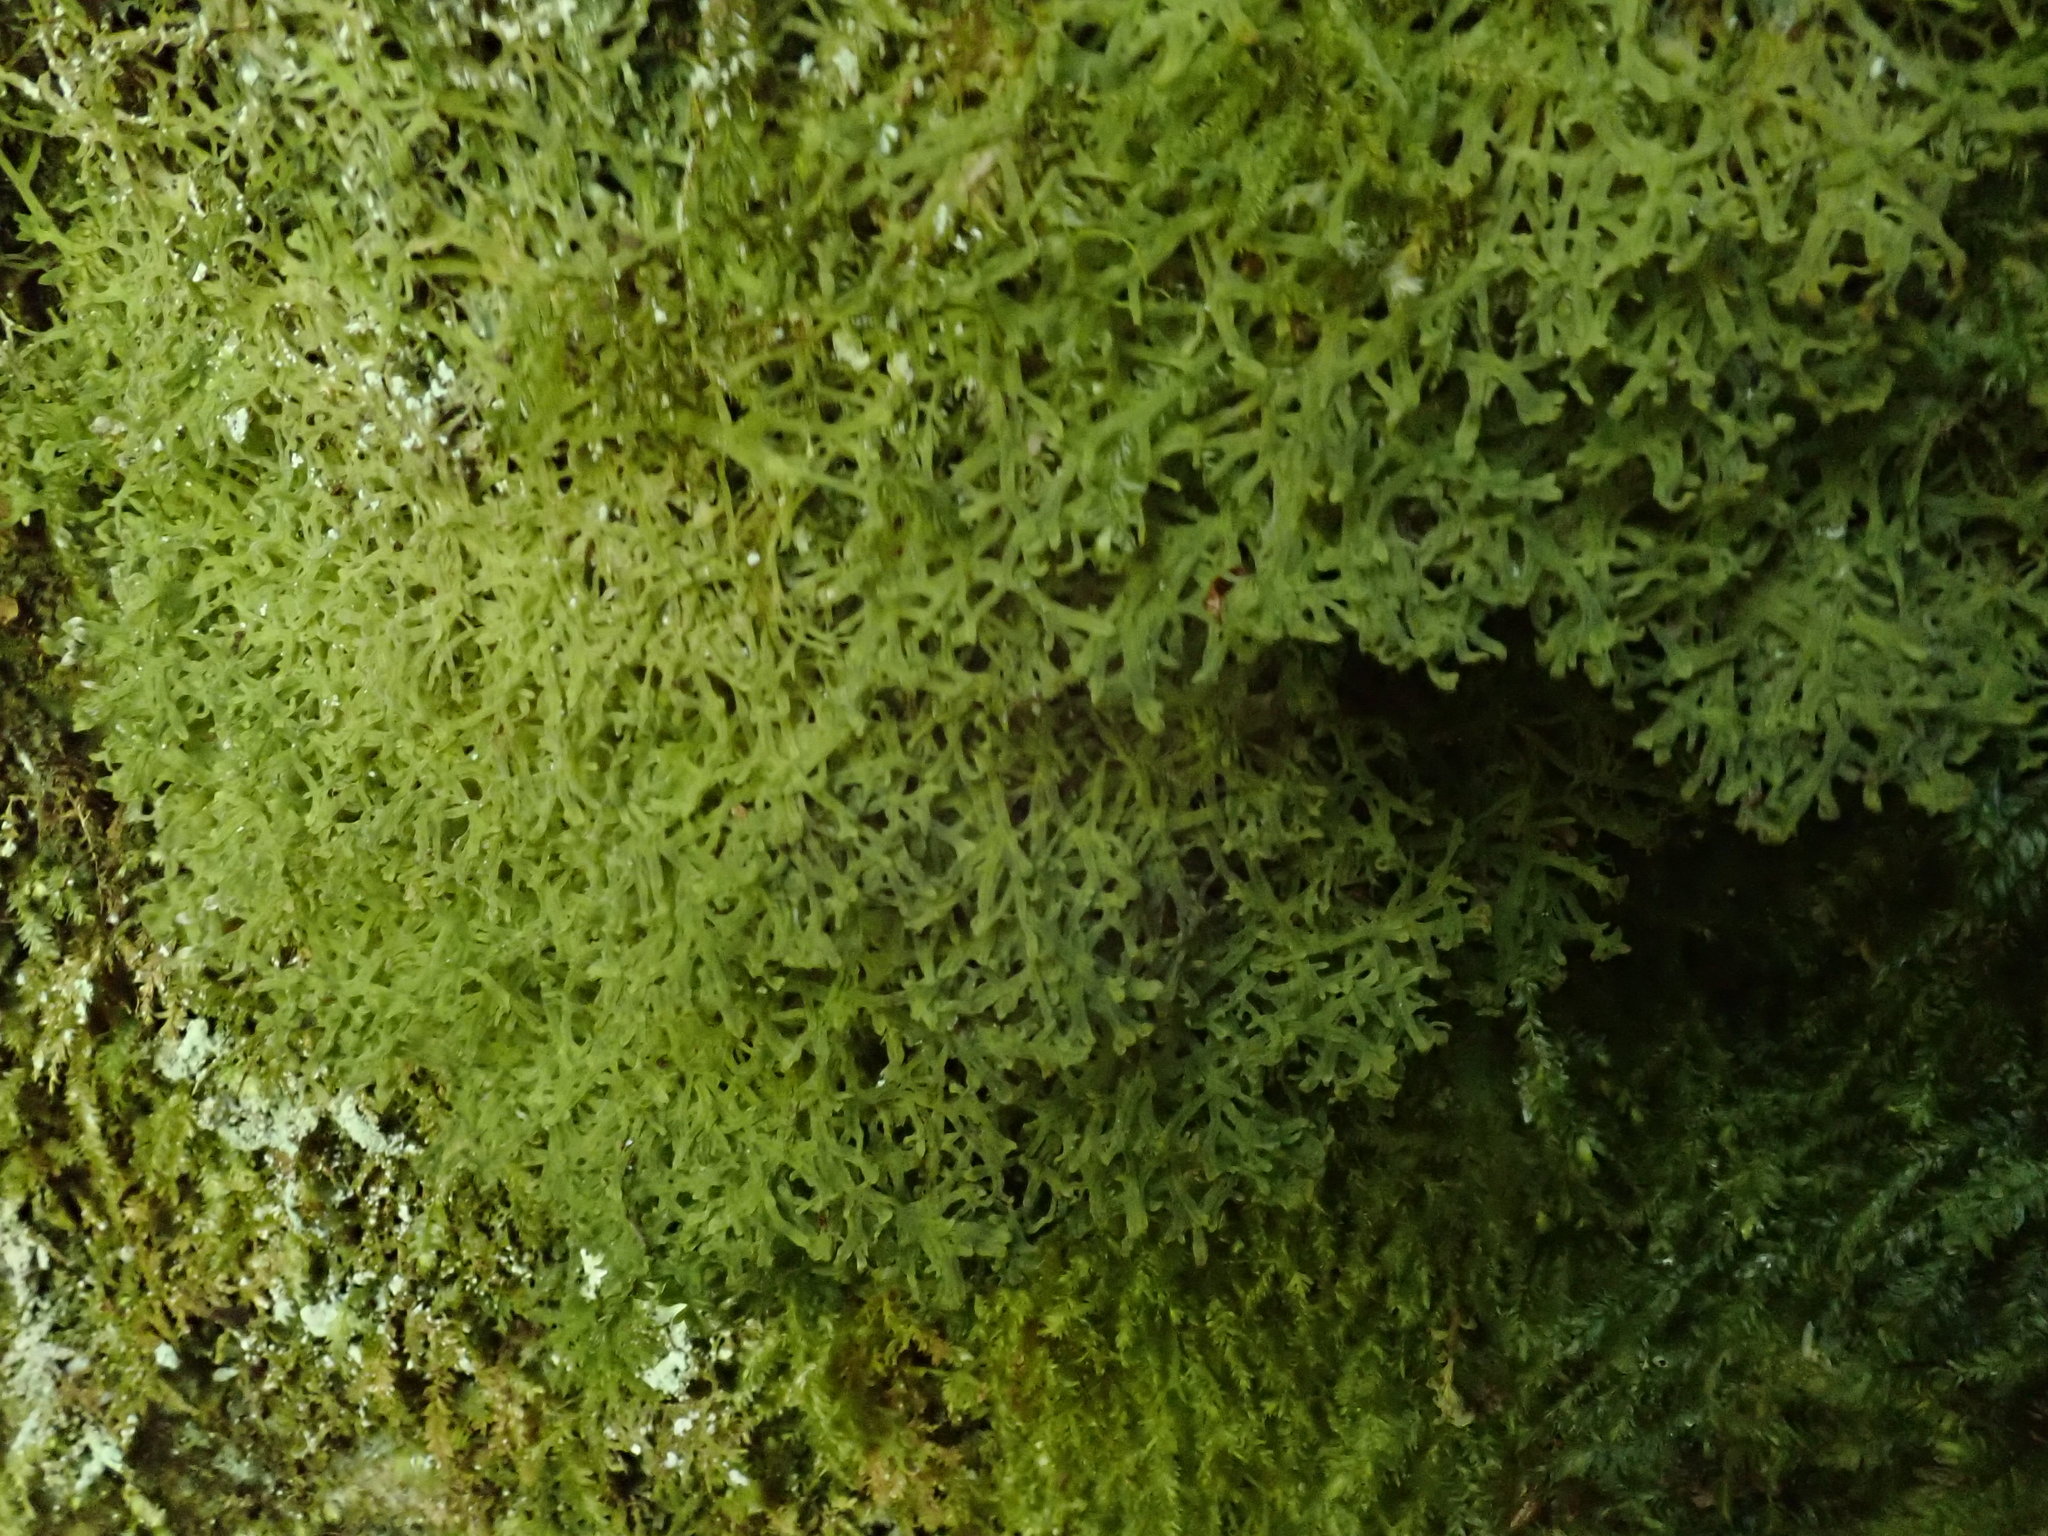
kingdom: Plantae
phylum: Marchantiophyta
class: Jungermanniopsida
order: Metzgeriales
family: Metzgeriaceae
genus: Metzgeria
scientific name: Metzgeria pubescens
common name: Downy veilwort
